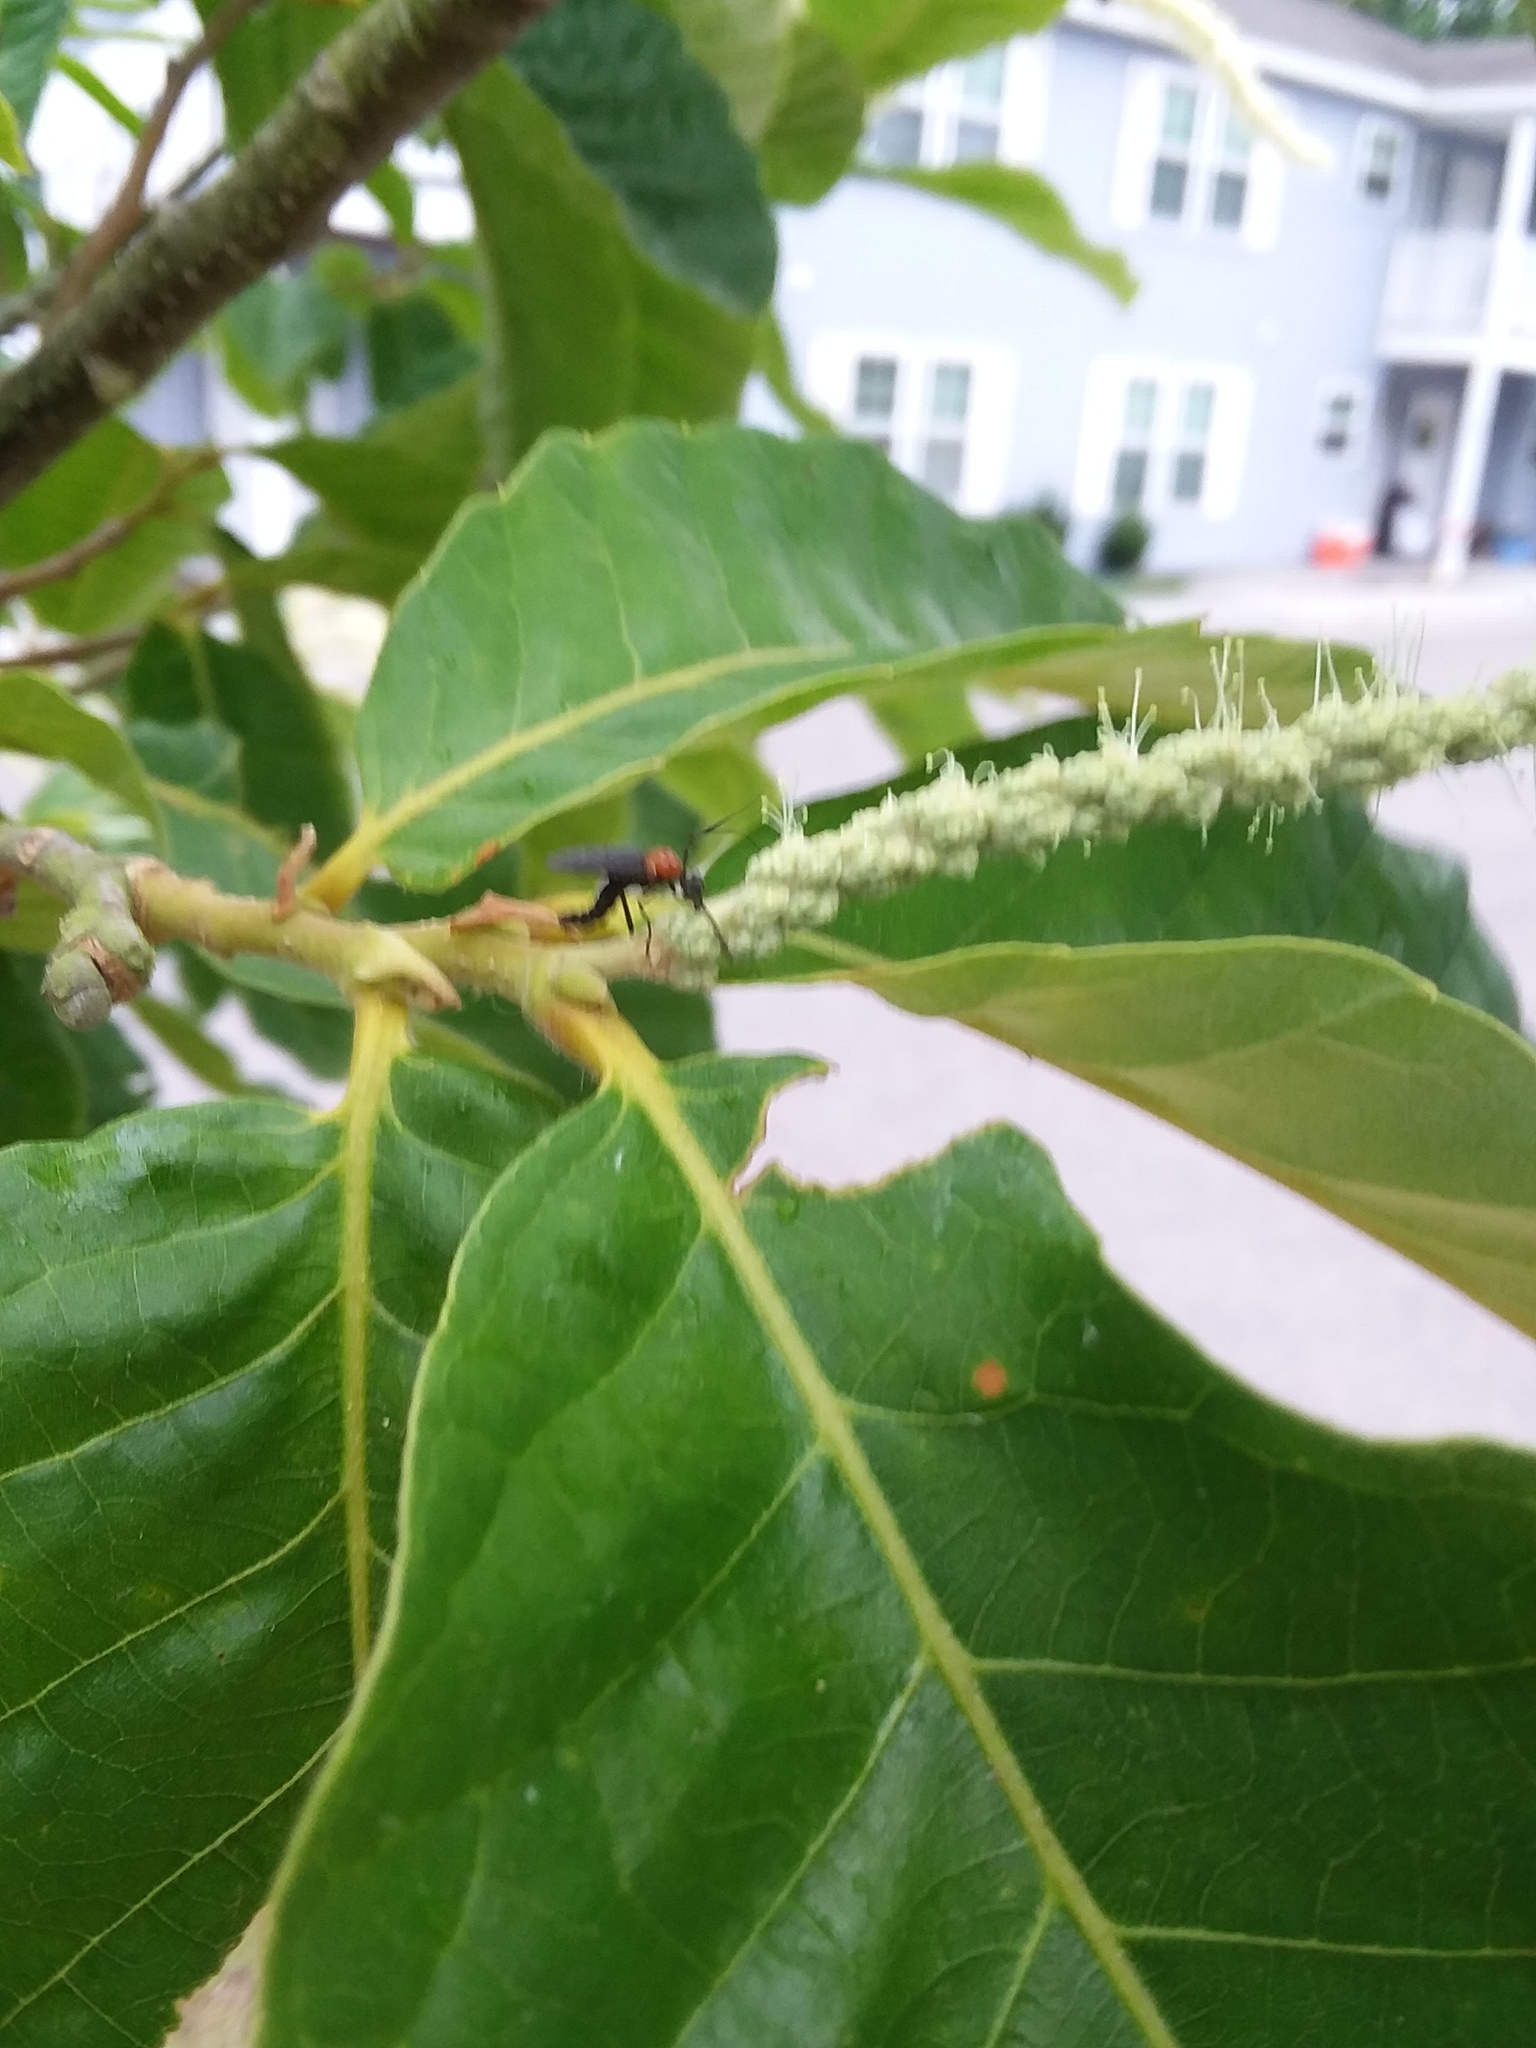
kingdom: Animalia
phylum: Arthropoda
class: Insecta
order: Diptera
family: Bibionidae
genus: Plecia
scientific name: Plecia nearctica
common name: March fly
